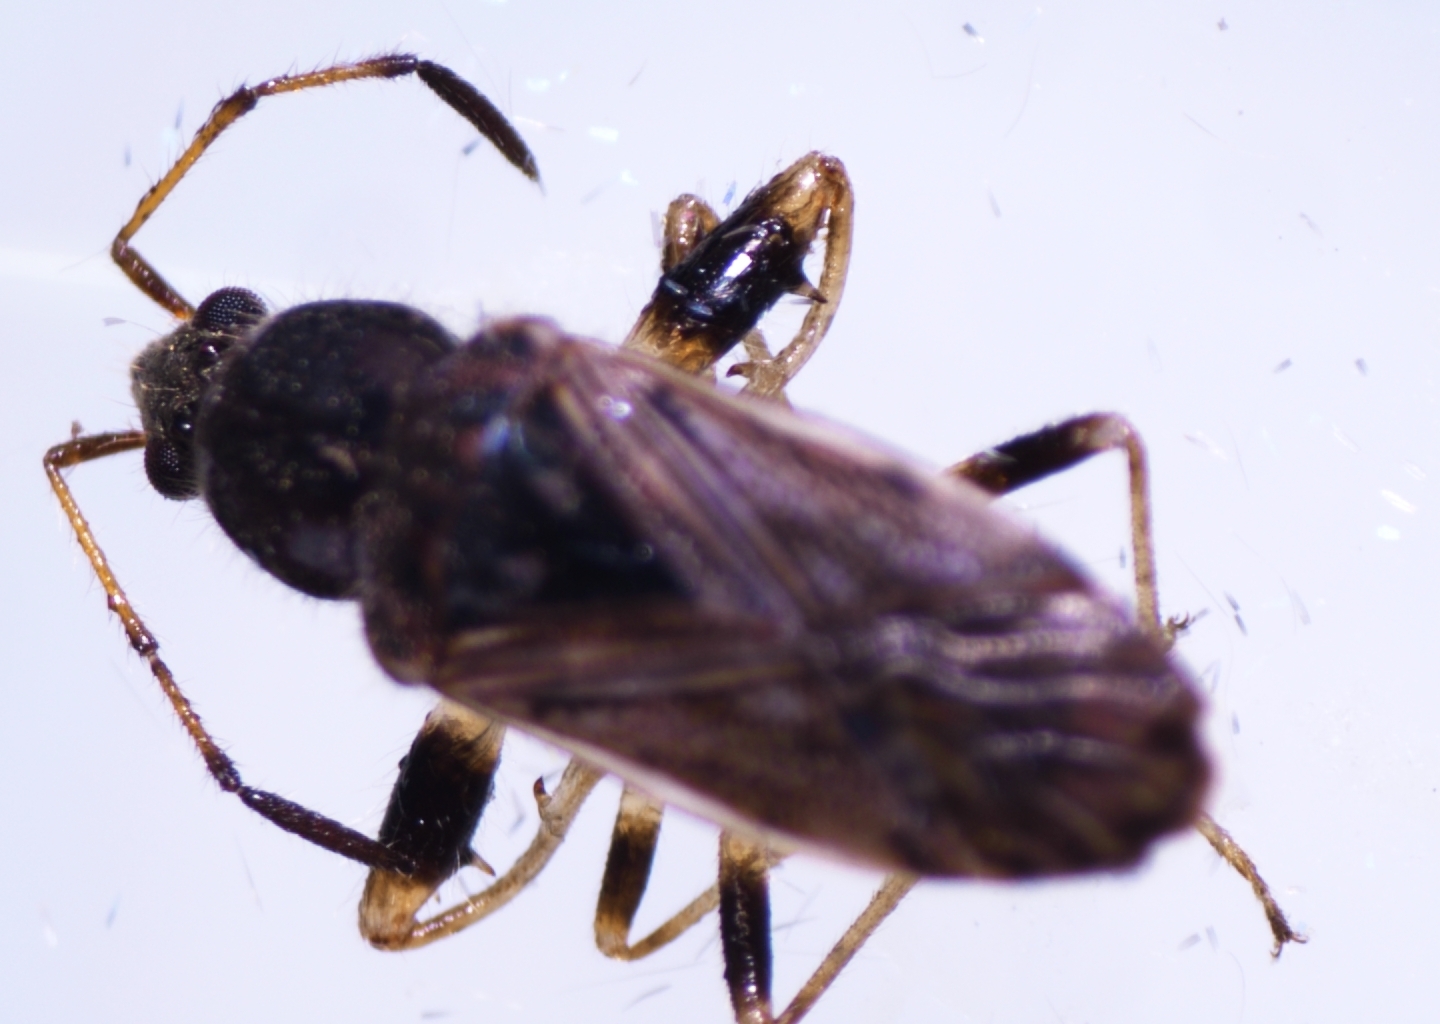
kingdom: Animalia
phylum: Arthropoda
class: Insecta
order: Hemiptera
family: Rhyparochromidae
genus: Remaudiereana
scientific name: Remaudiereana nigriceps
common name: Seed bug
